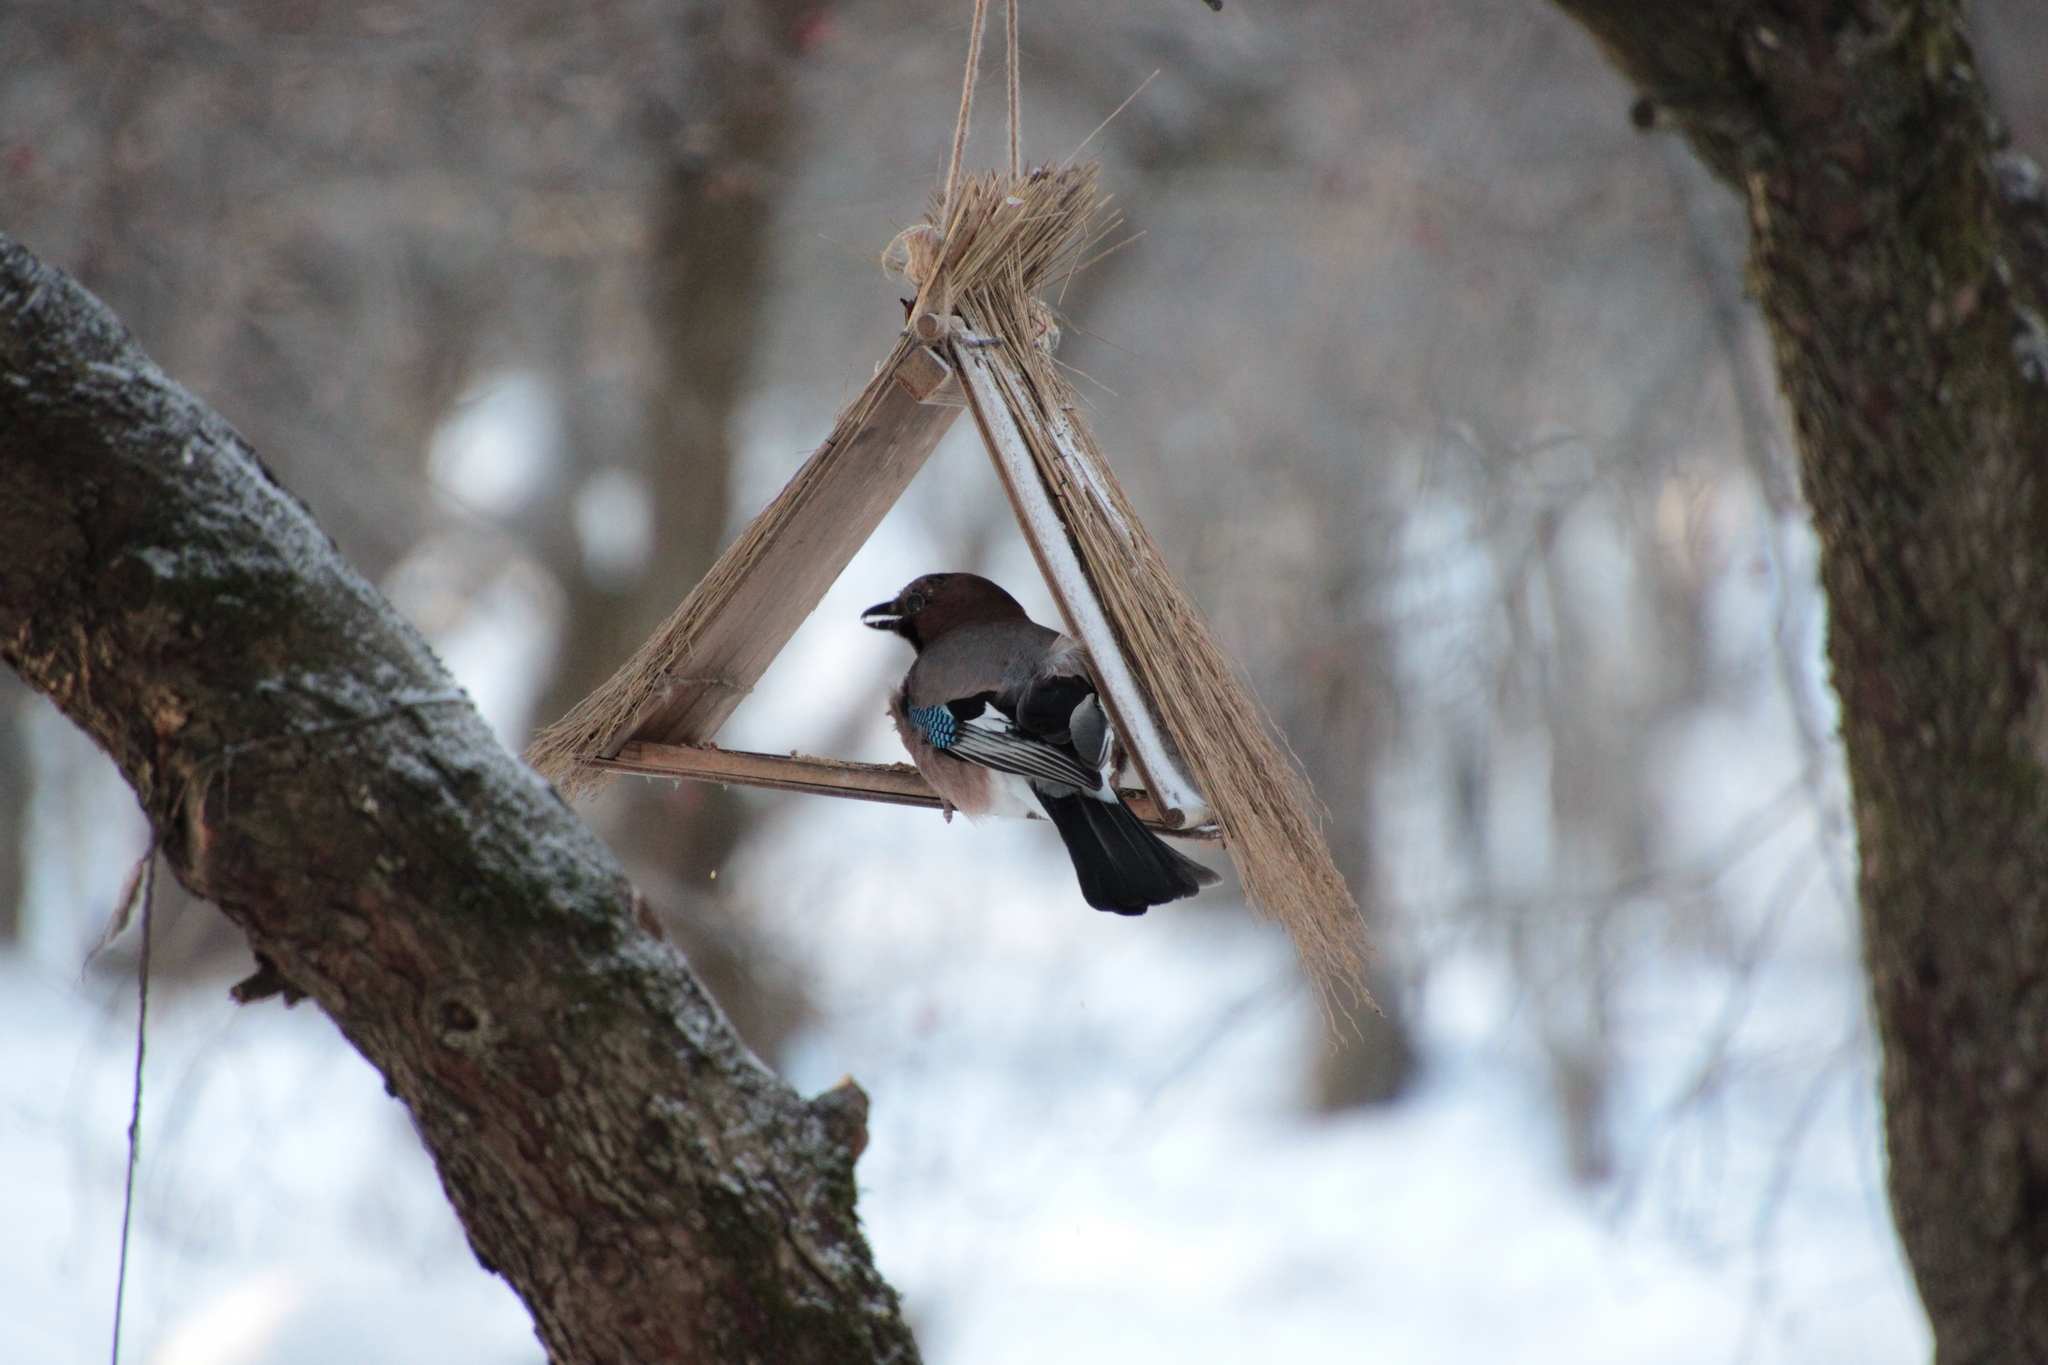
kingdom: Animalia
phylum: Chordata
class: Aves
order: Passeriformes
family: Corvidae
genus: Garrulus
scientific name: Garrulus glandarius
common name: Eurasian jay
